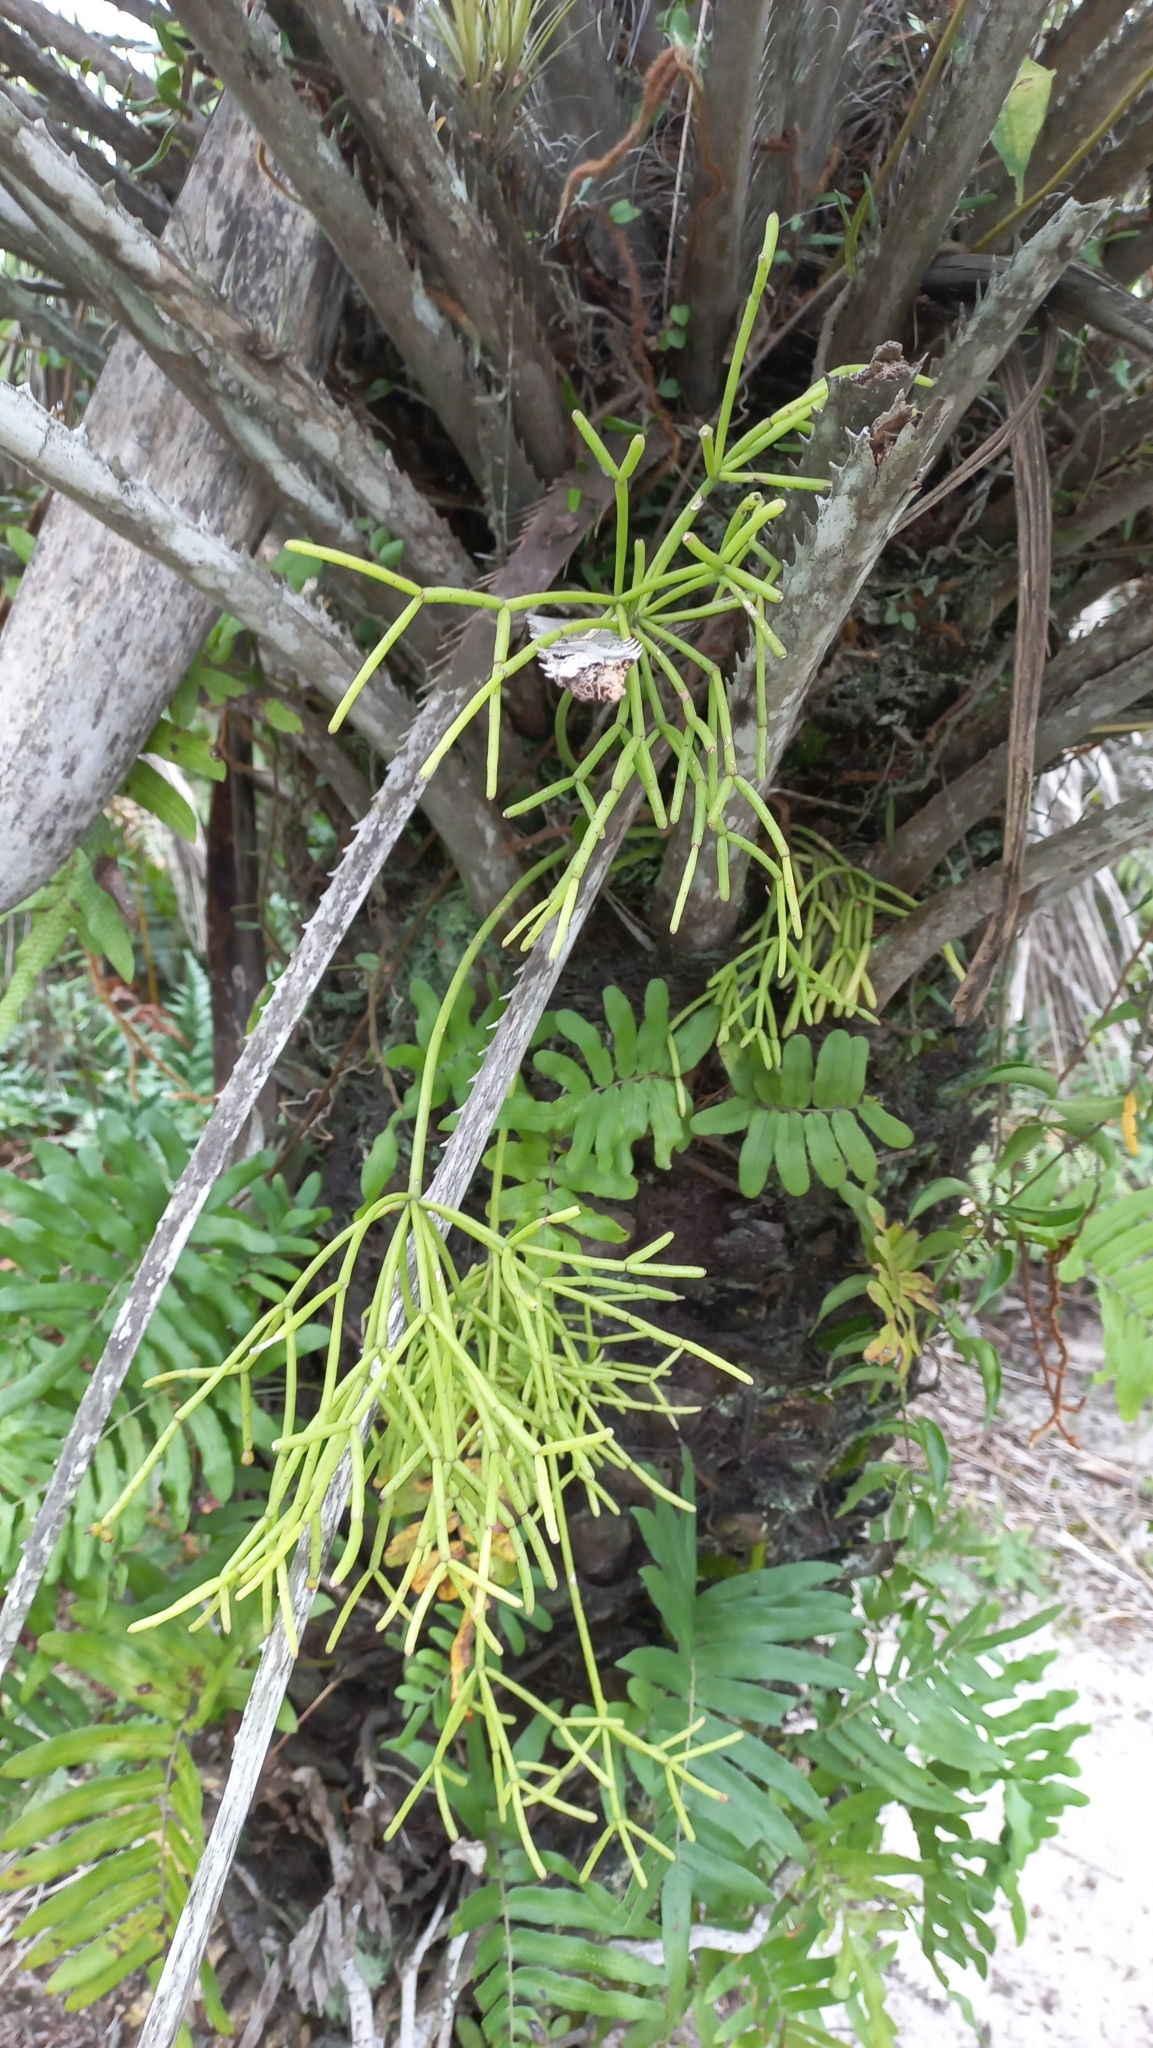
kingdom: Plantae
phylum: Tracheophyta
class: Magnoliopsida
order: Caryophyllales
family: Cactaceae
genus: Rhipsalis
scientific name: Rhipsalis teres
